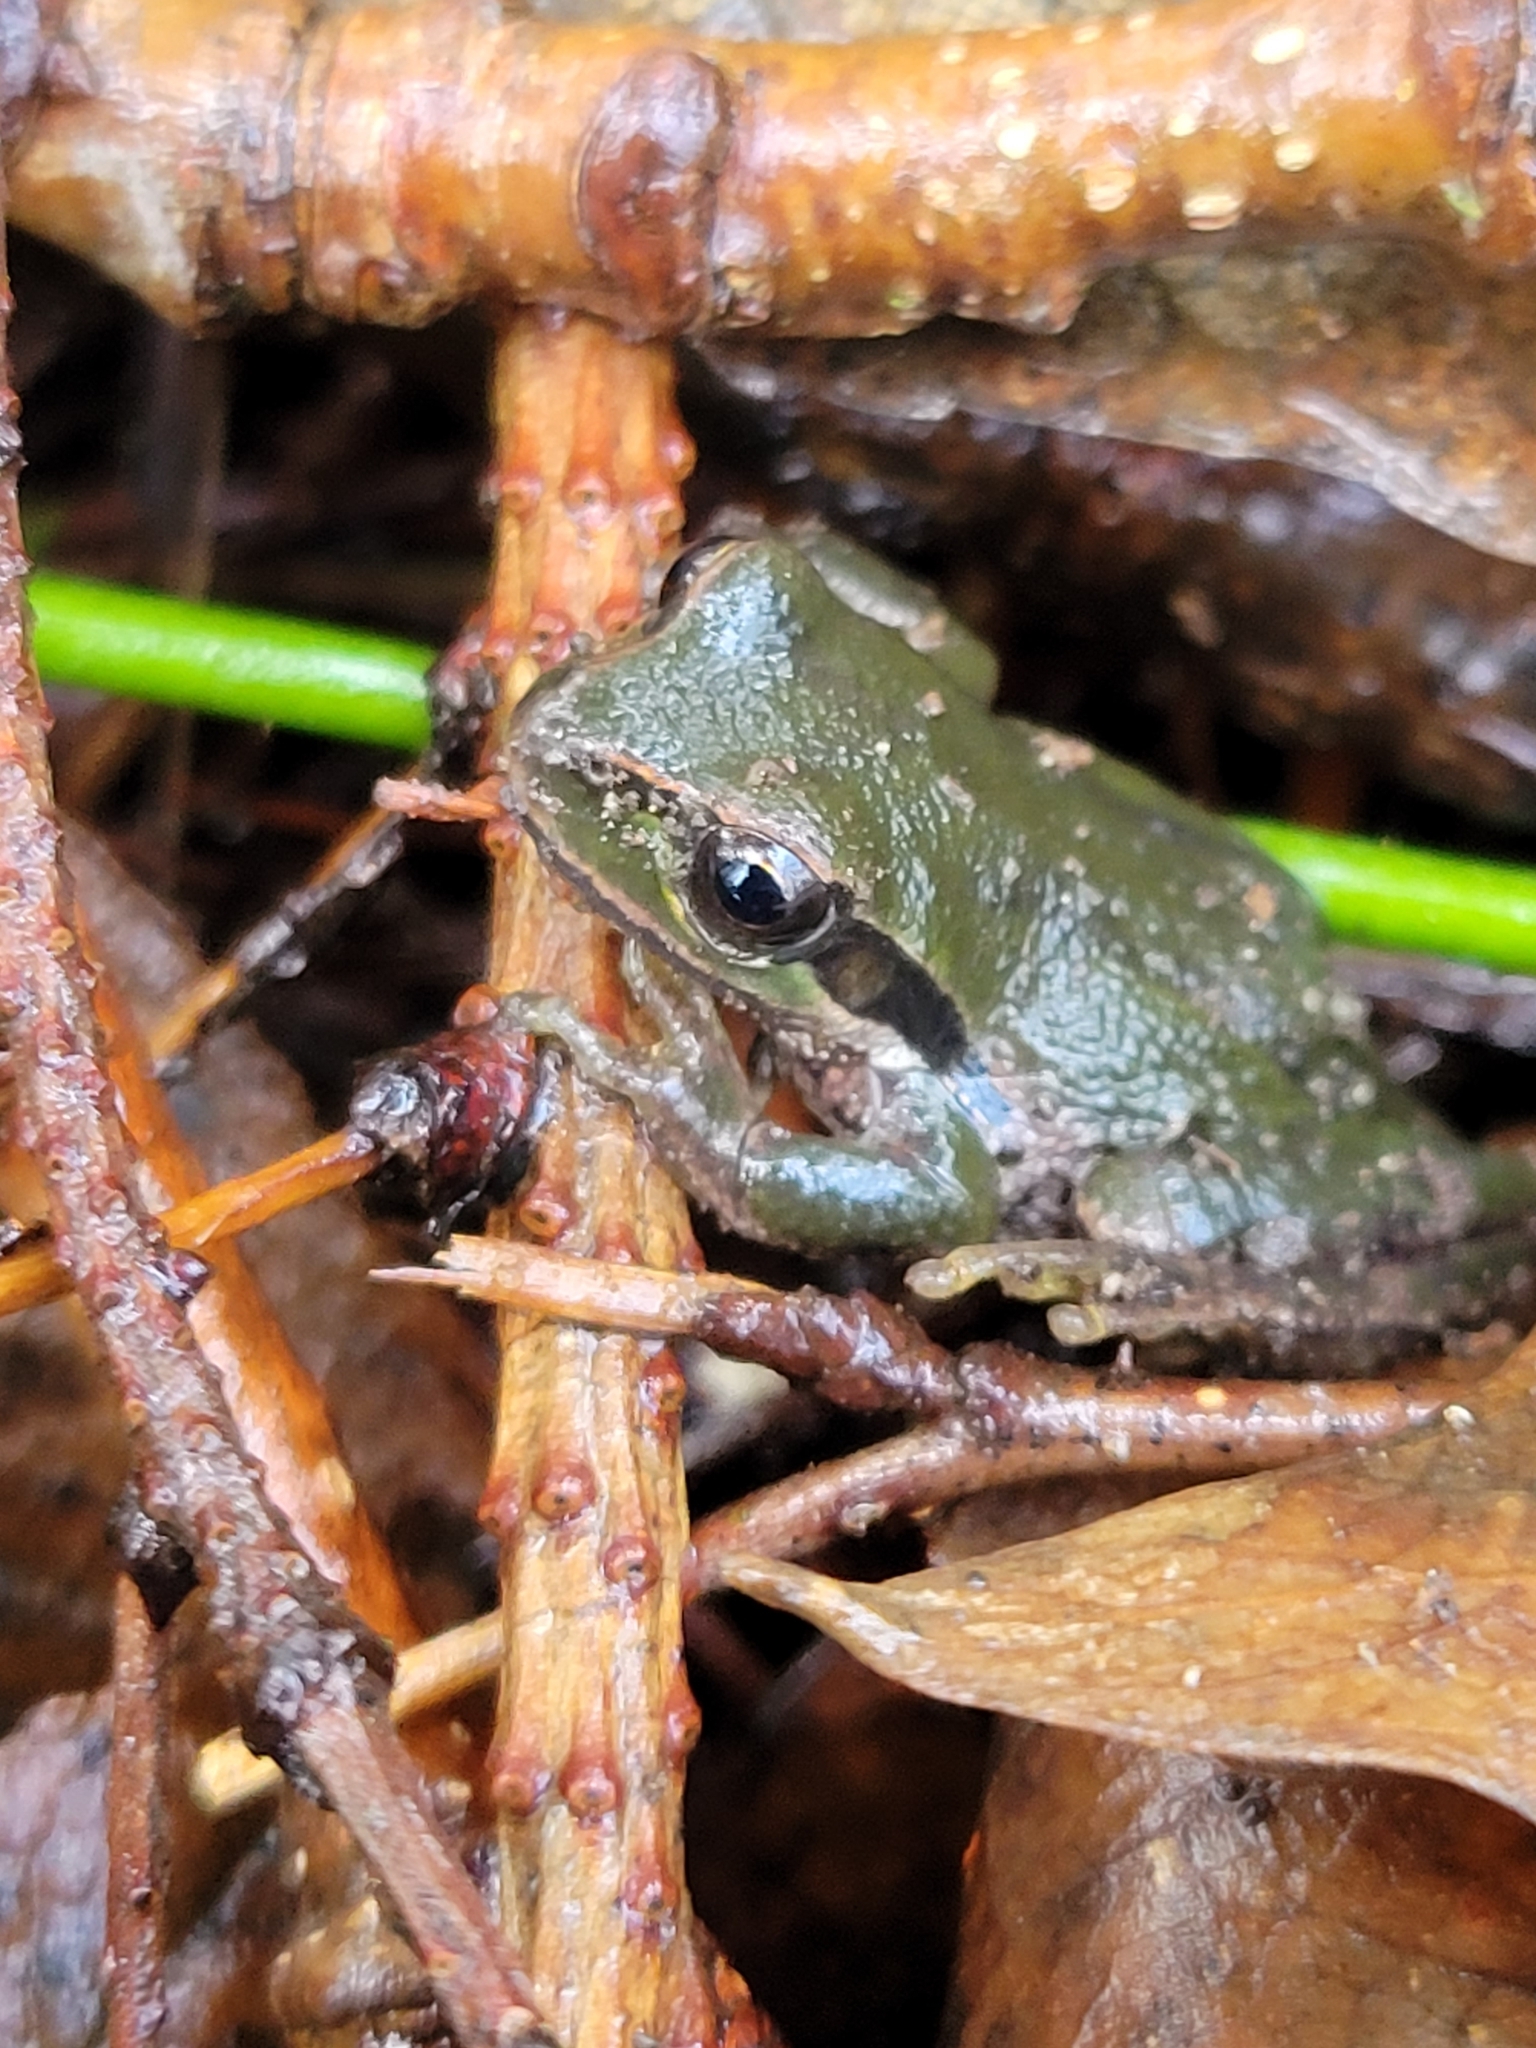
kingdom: Animalia
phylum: Chordata
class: Amphibia
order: Anura
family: Hylidae
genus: Pseudacris
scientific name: Pseudacris regilla
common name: Pacific chorus frog
